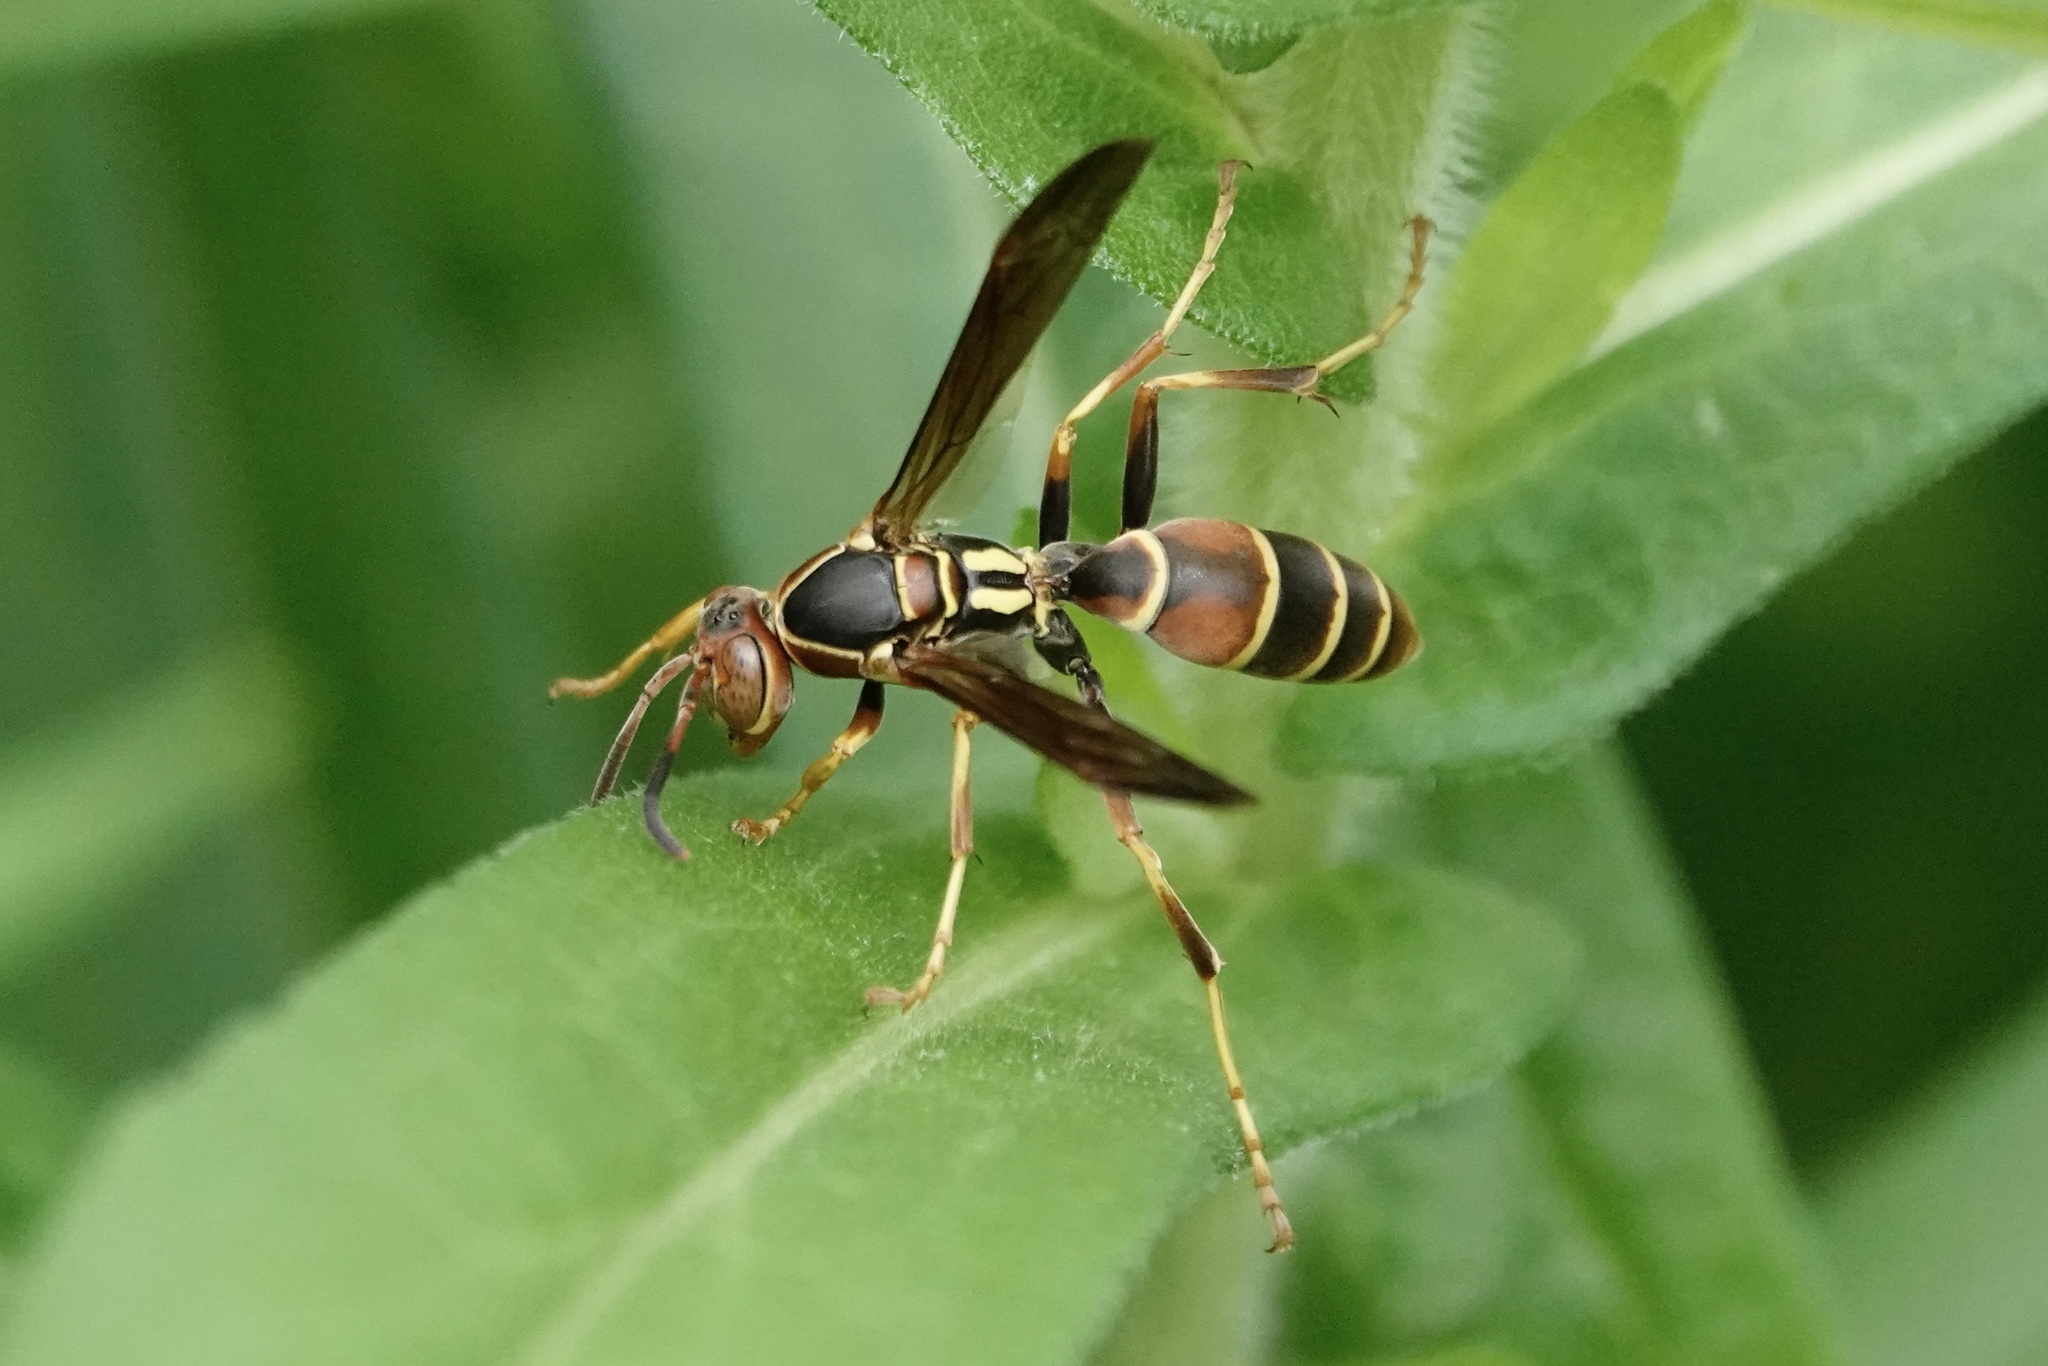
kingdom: Animalia
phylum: Arthropoda
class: Insecta
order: Hymenoptera
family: Eumenidae
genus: Polistes
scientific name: Polistes dorsalis
